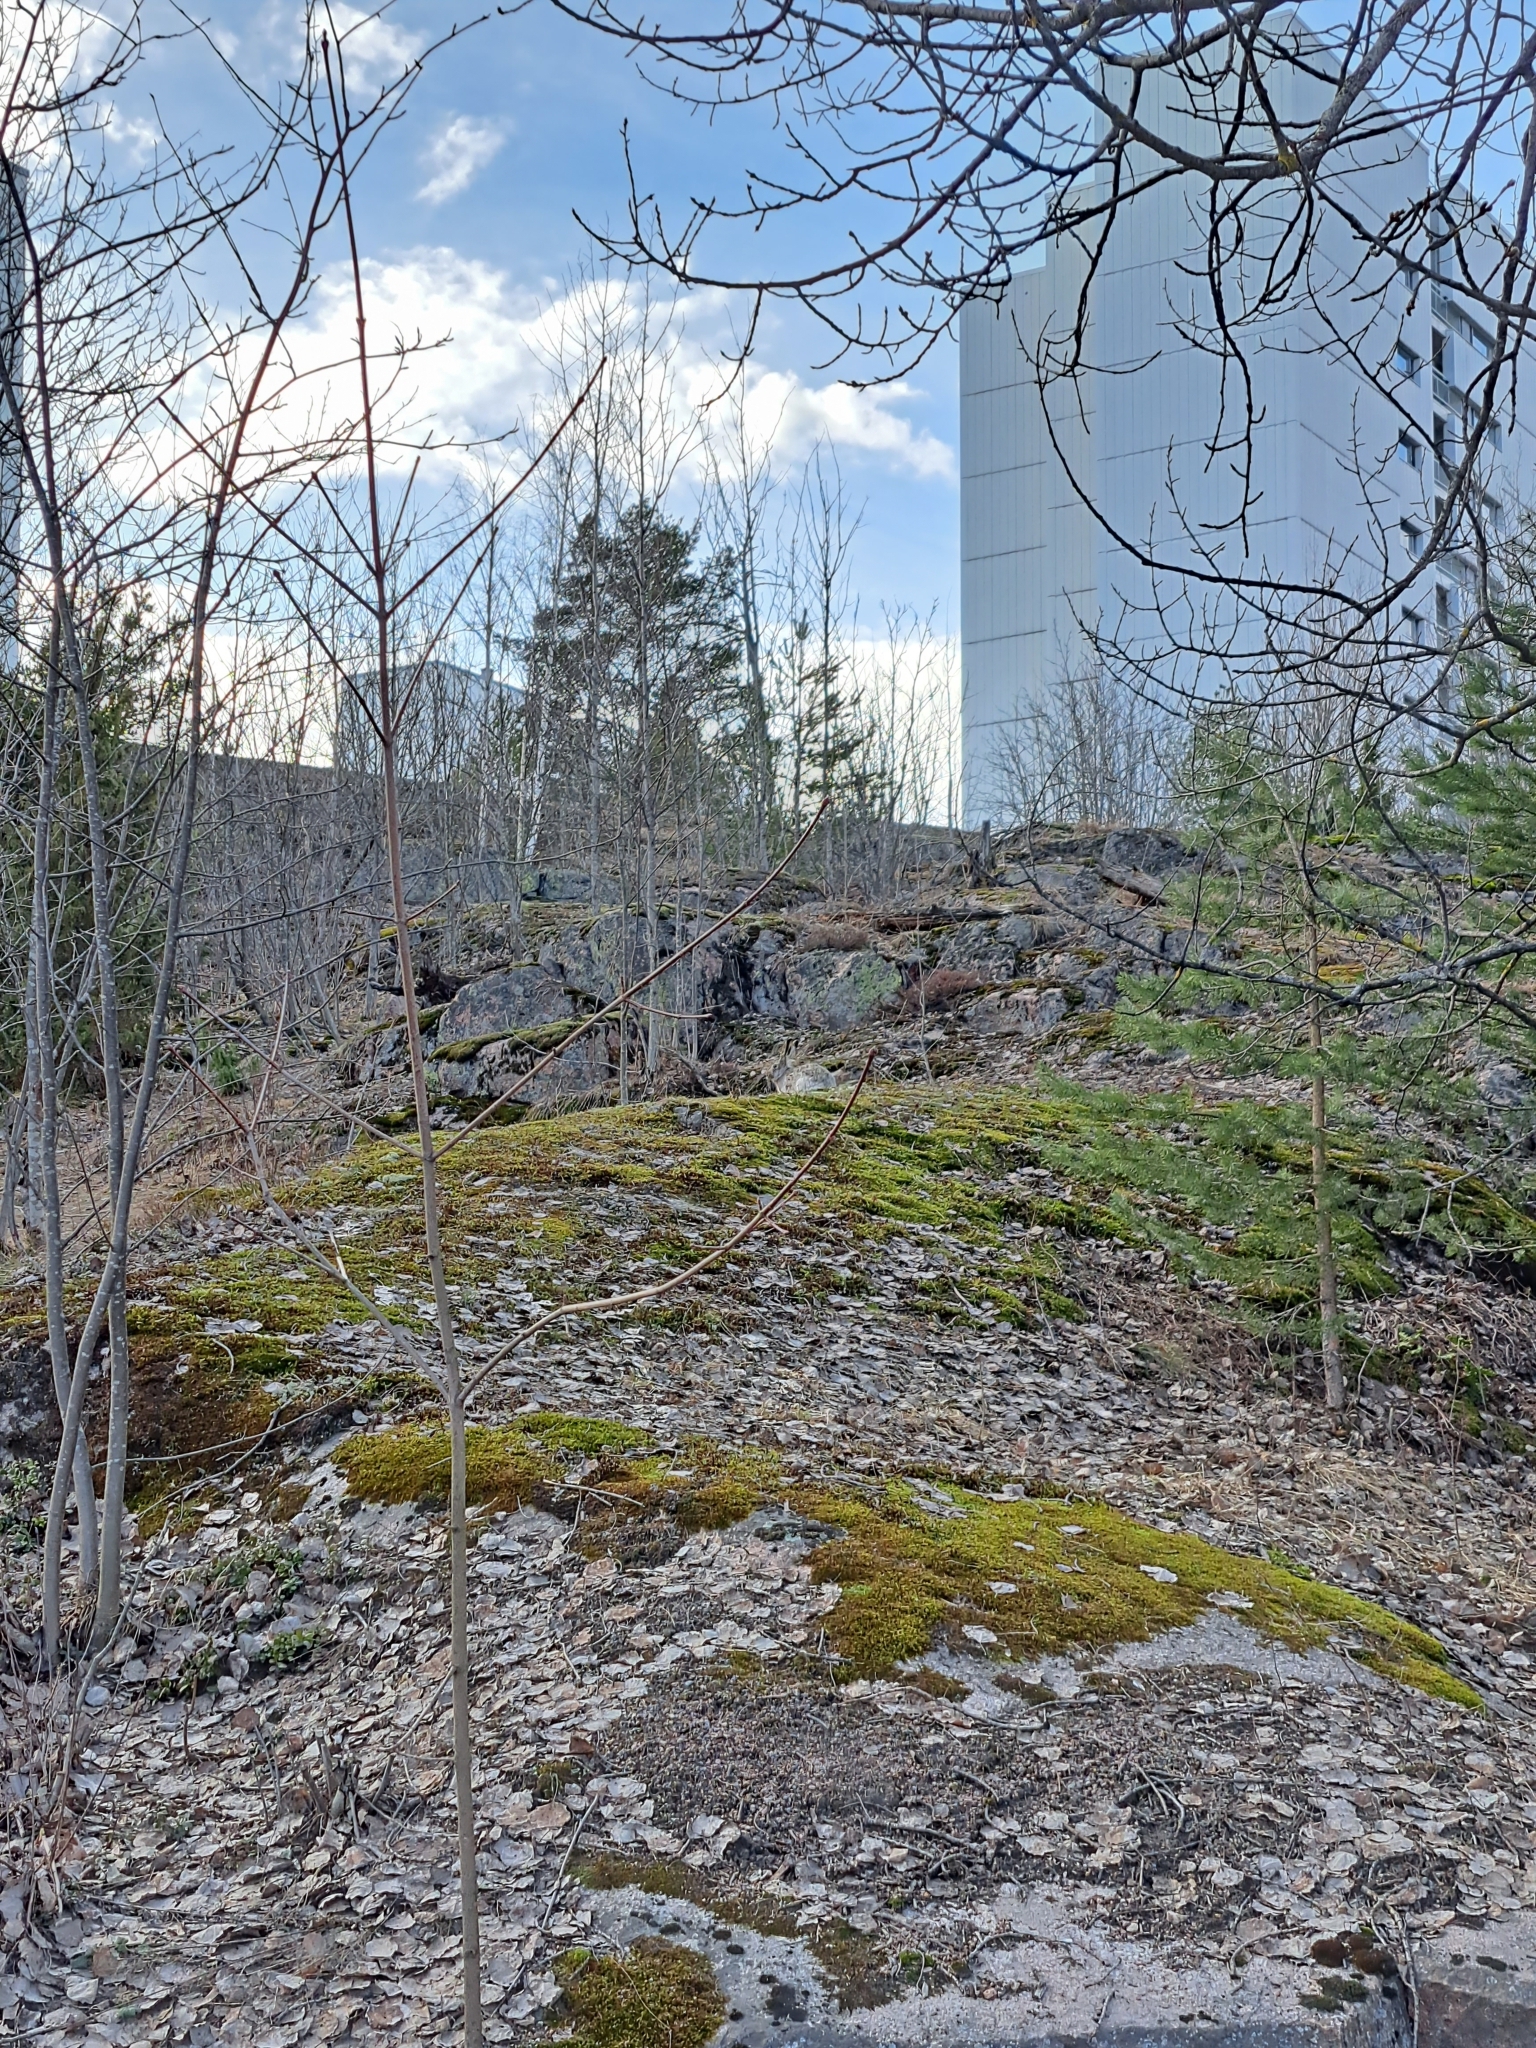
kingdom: Animalia
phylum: Chordata
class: Mammalia
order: Lagomorpha
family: Leporidae
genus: Lepus
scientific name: Lepus europaeus
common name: European hare
